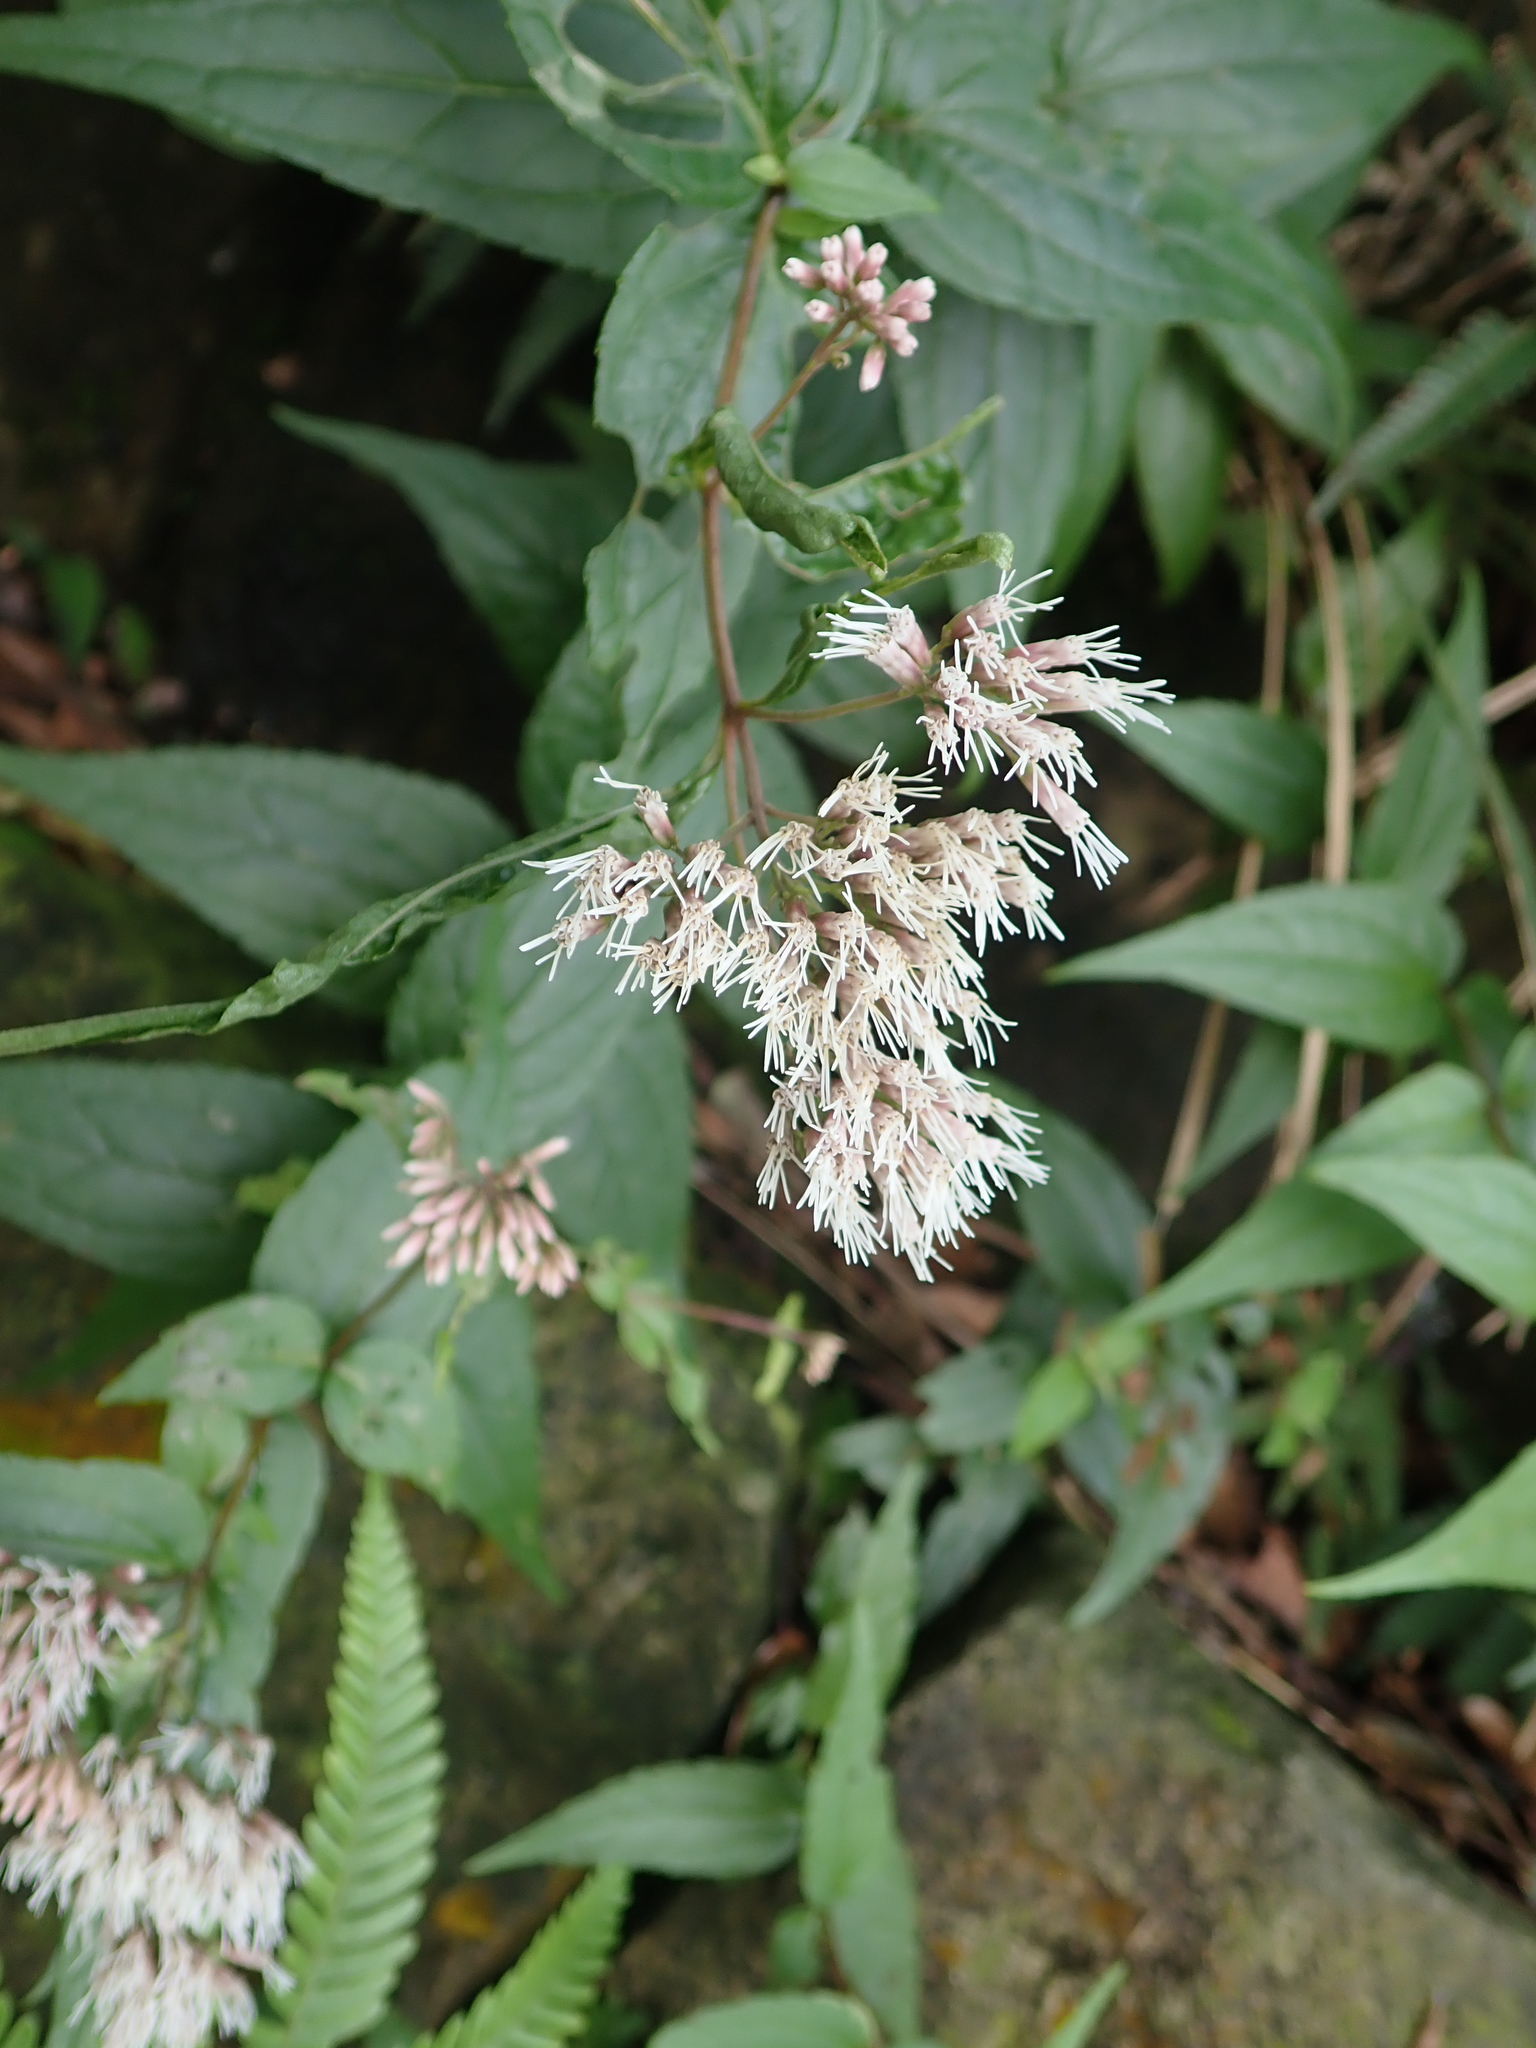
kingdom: Plantae
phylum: Tracheophyta
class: Magnoliopsida
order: Asterales
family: Asteraceae
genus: Eupatorium
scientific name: Eupatorium luchuense
